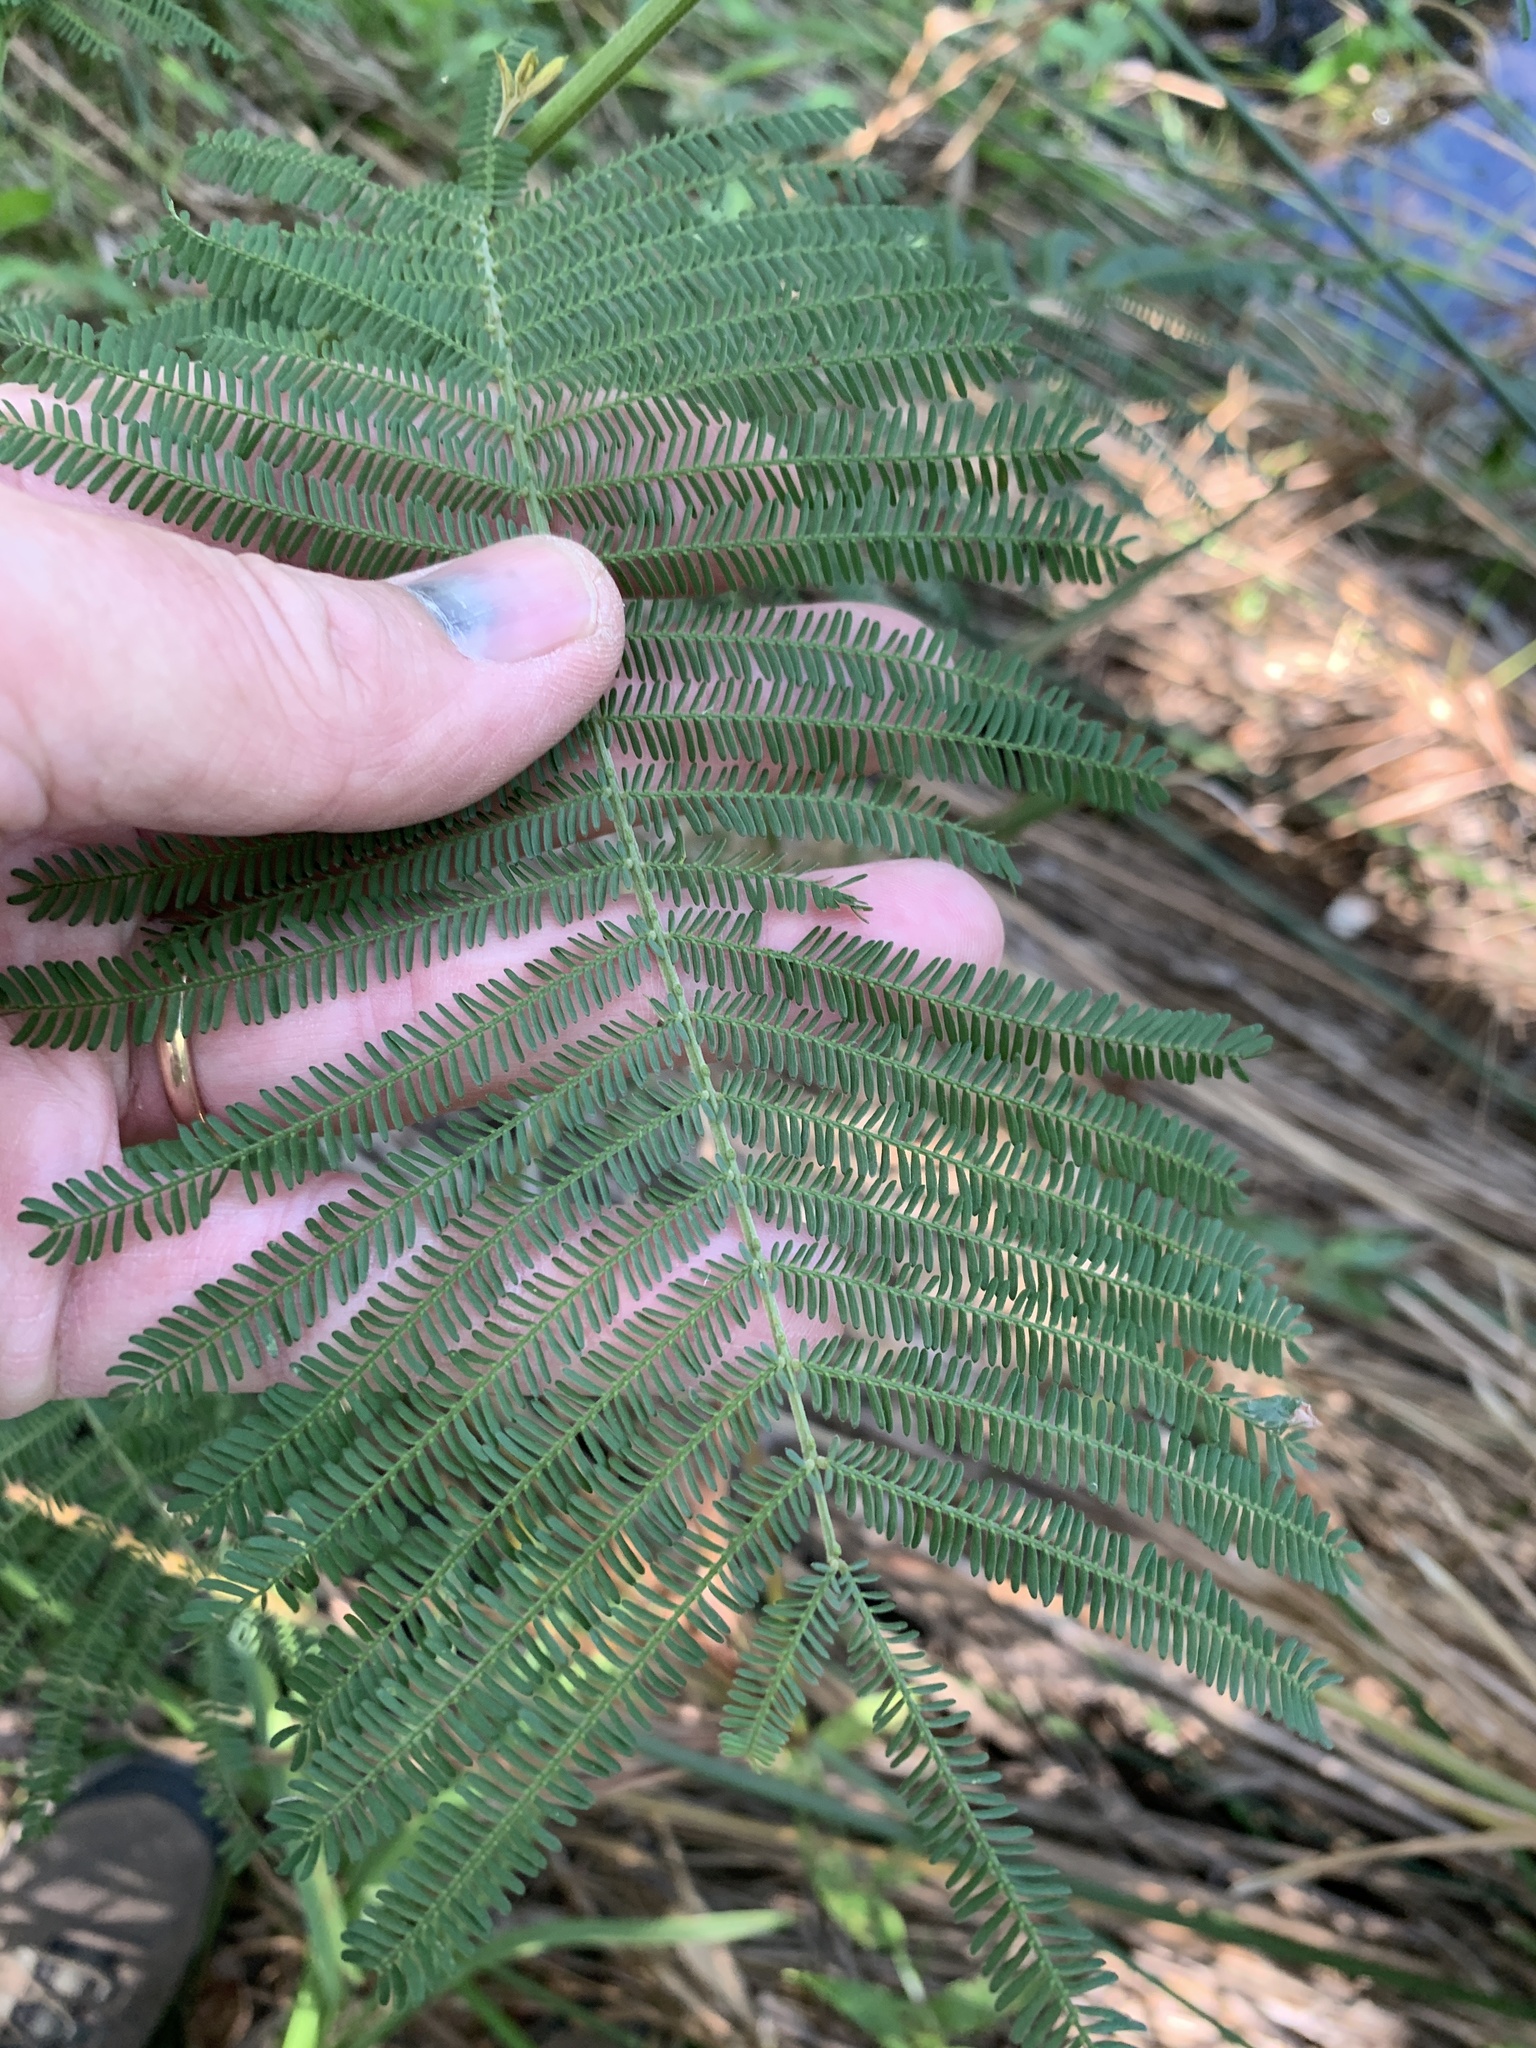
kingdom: Plantae
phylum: Tracheophyta
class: Magnoliopsida
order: Fabales
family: Fabaceae
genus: Acacia
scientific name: Acacia mearnsii
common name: Black wattle
